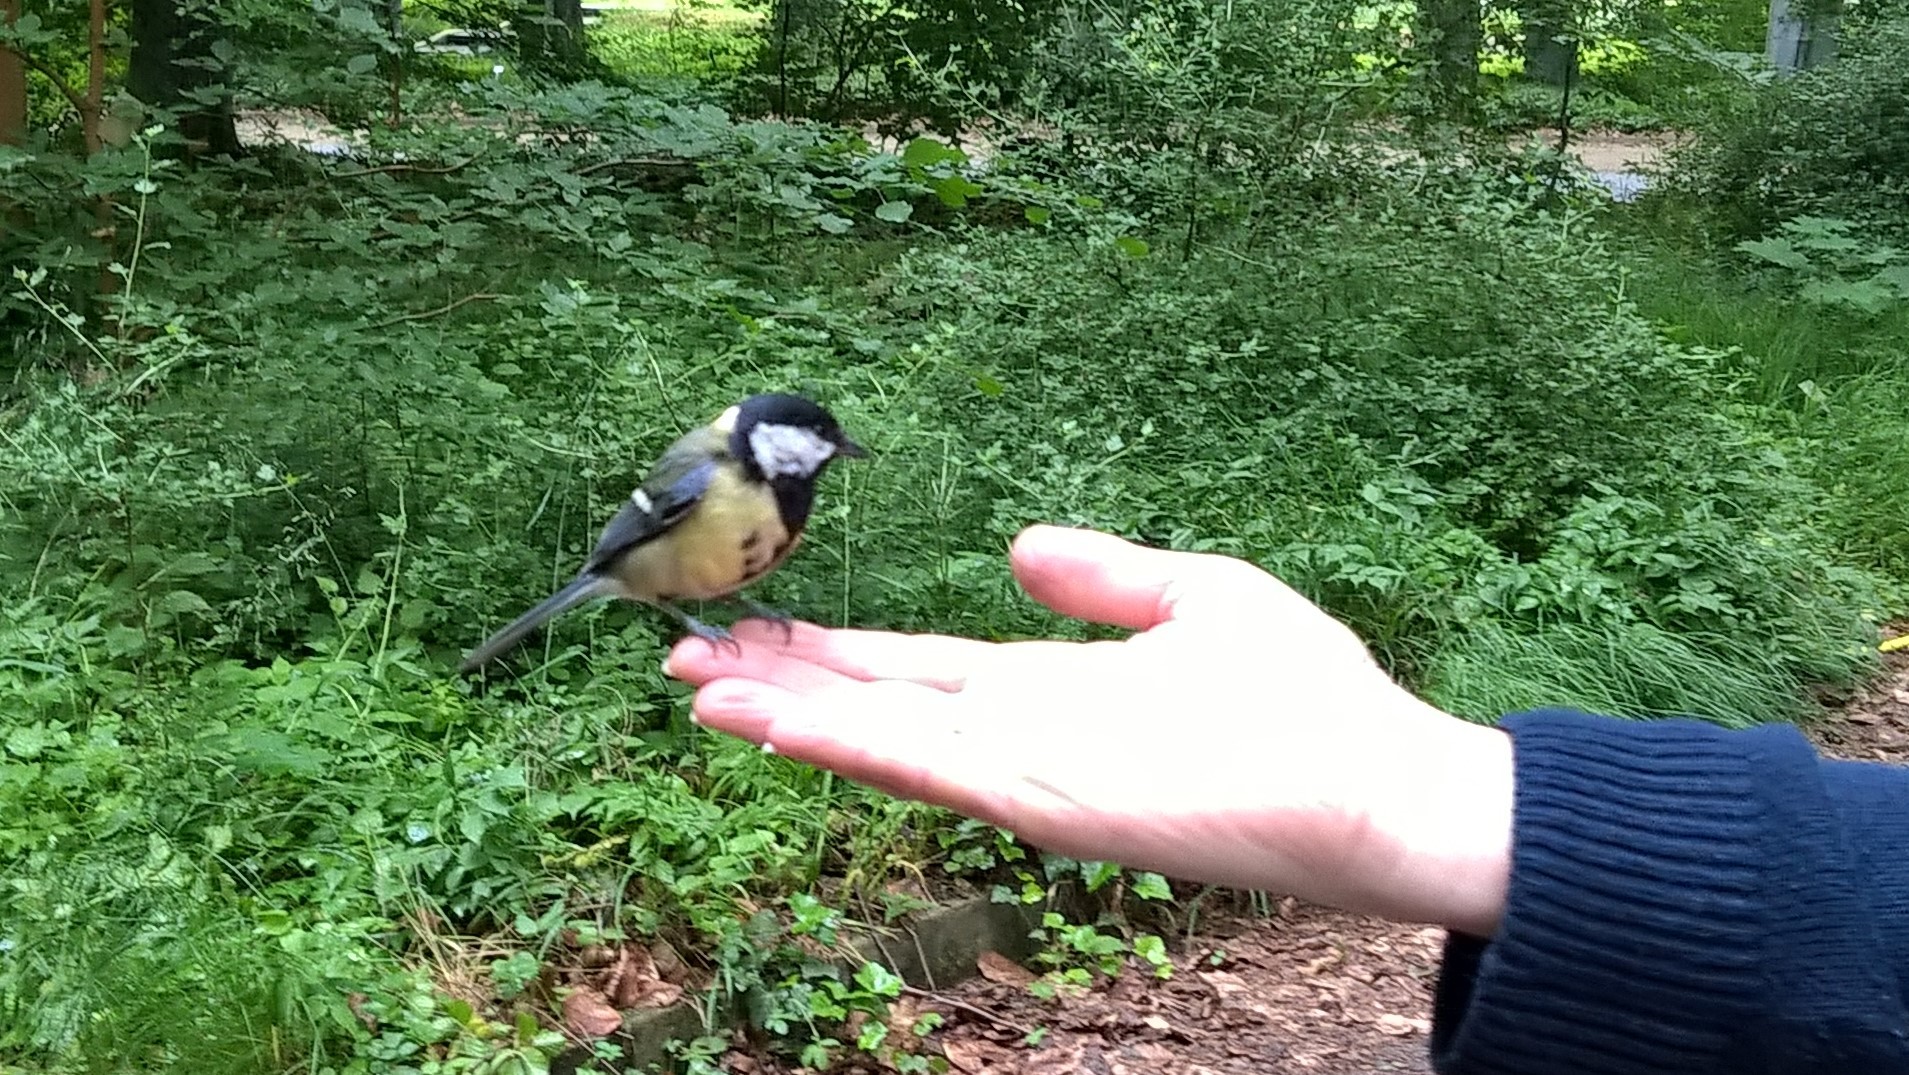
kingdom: Animalia
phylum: Chordata
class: Aves
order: Passeriformes
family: Paridae
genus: Parus
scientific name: Parus major
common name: Great tit
